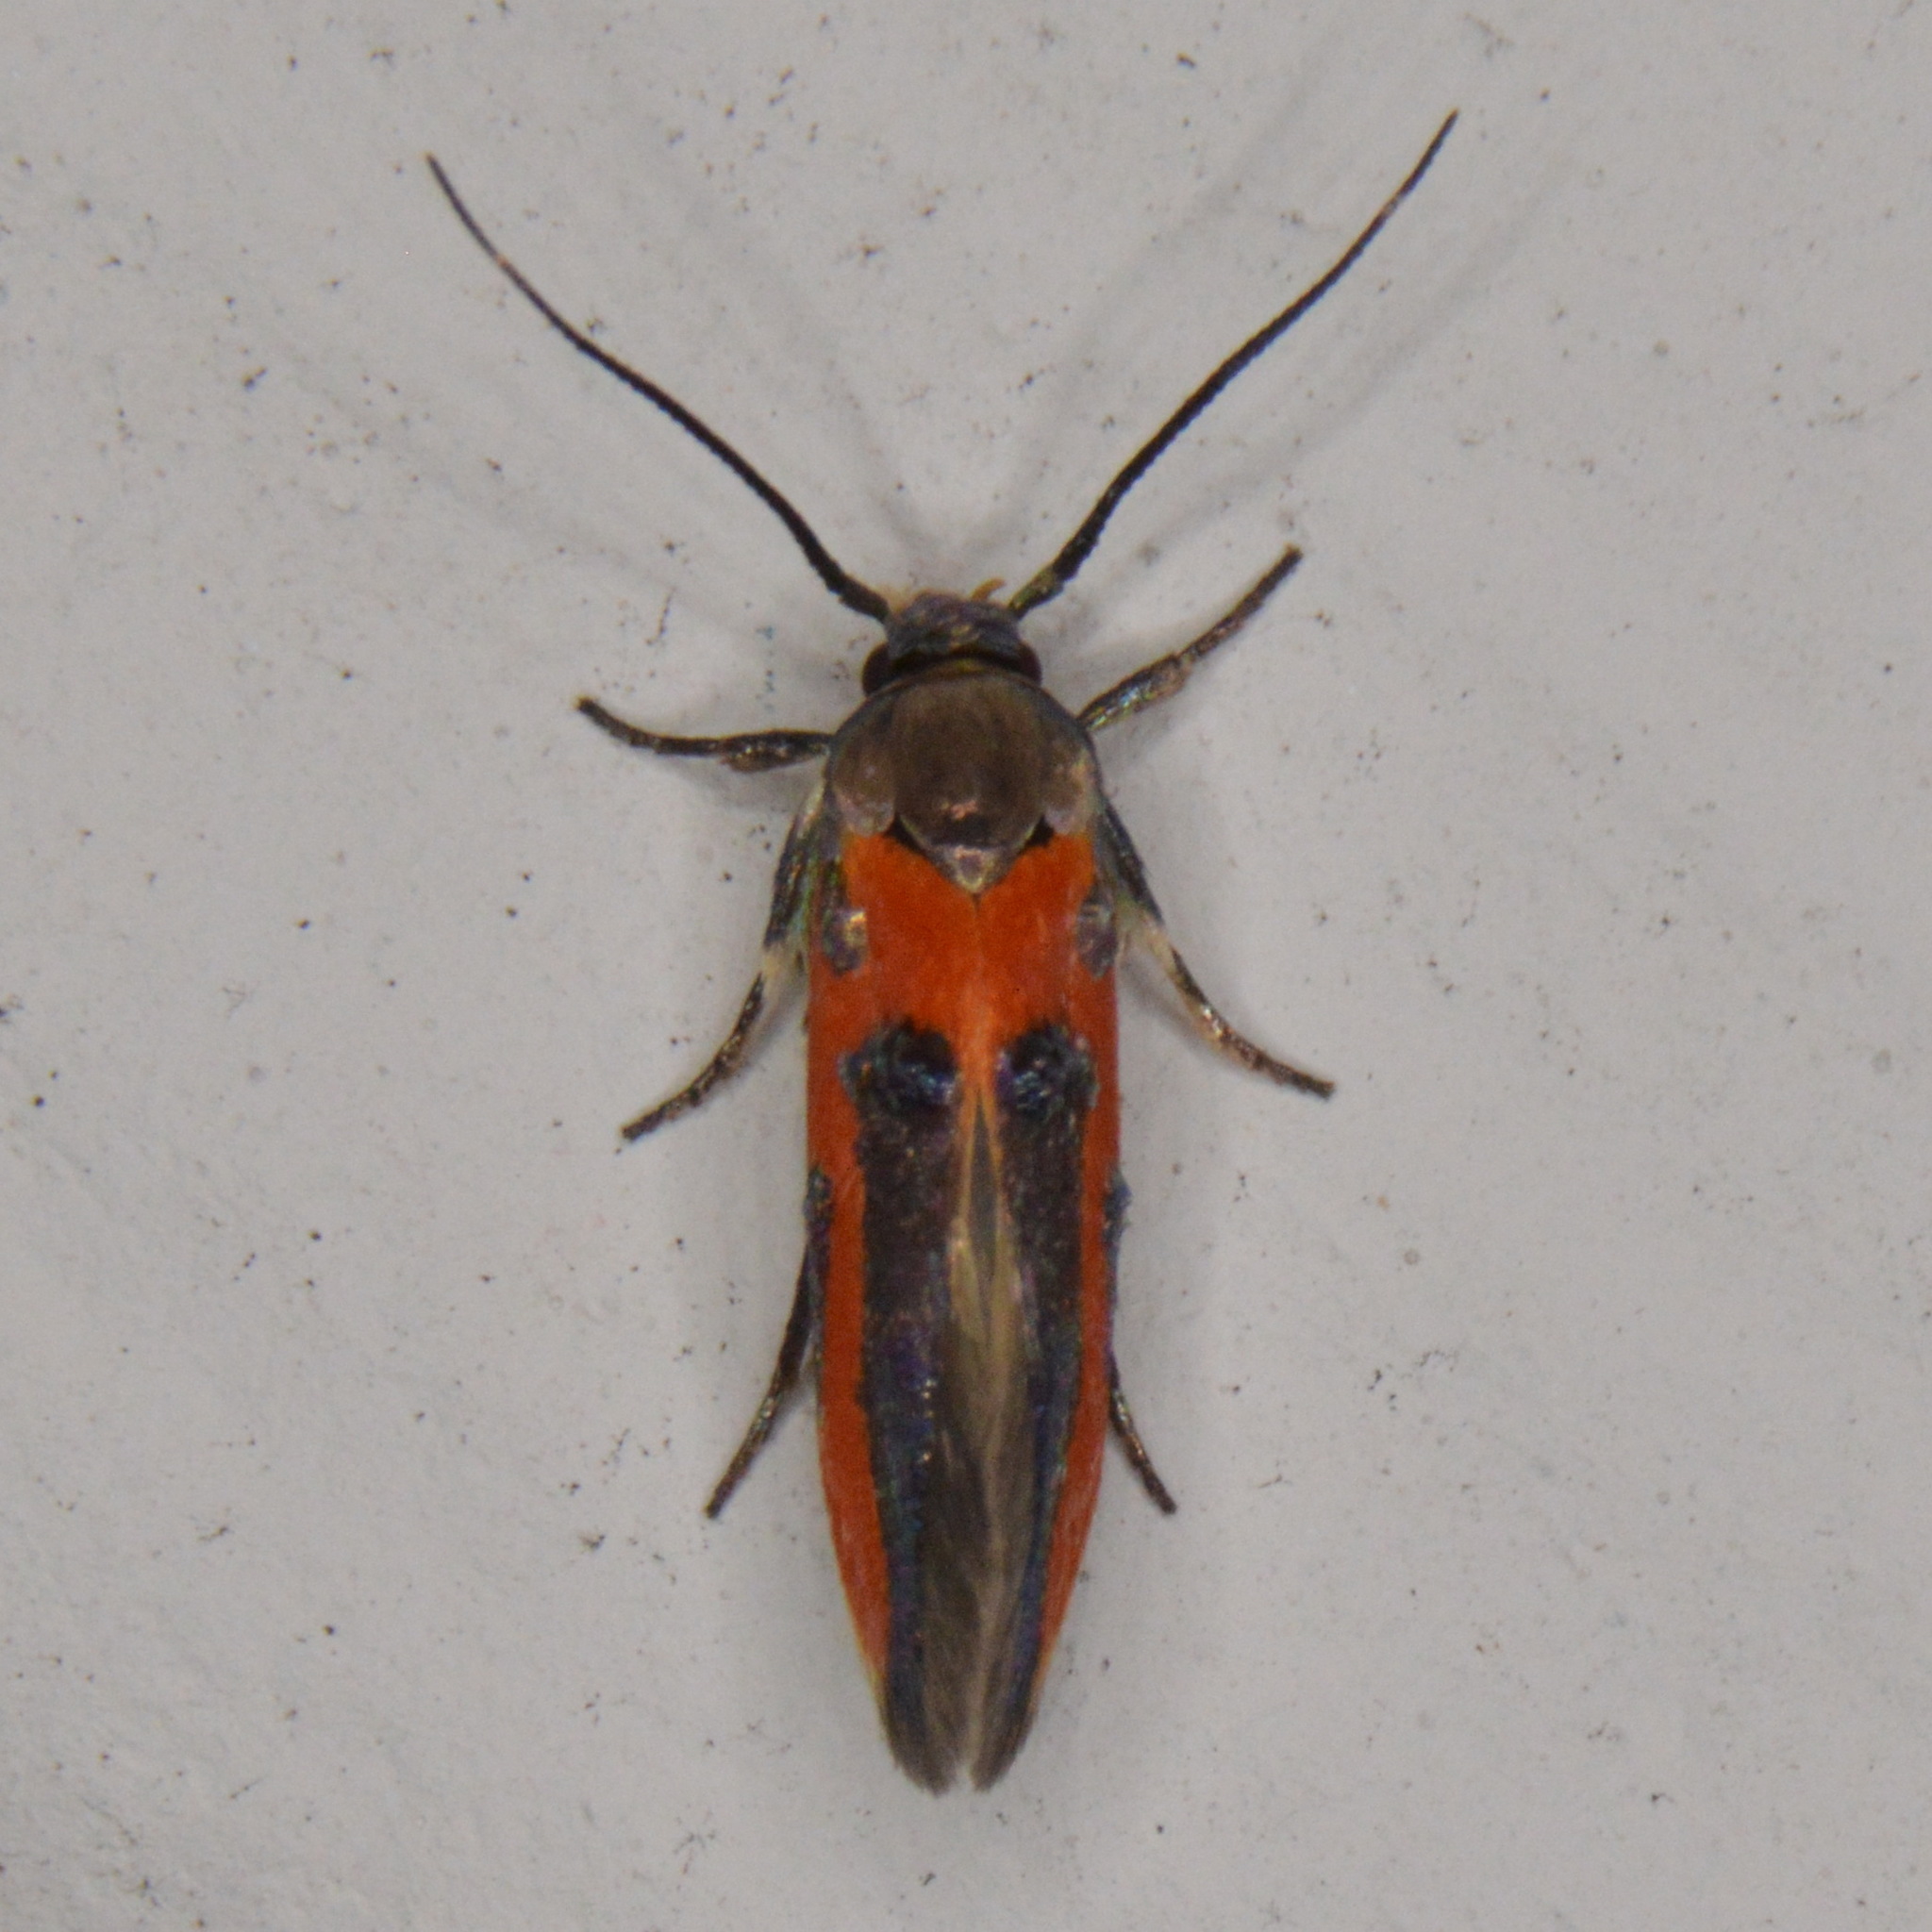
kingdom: Animalia
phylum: Arthropoda
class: Insecta
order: Lepidoptera
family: Cosmopterigidae
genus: Euclemensia
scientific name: Euclemensia bassettella
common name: Kermes scale moth
